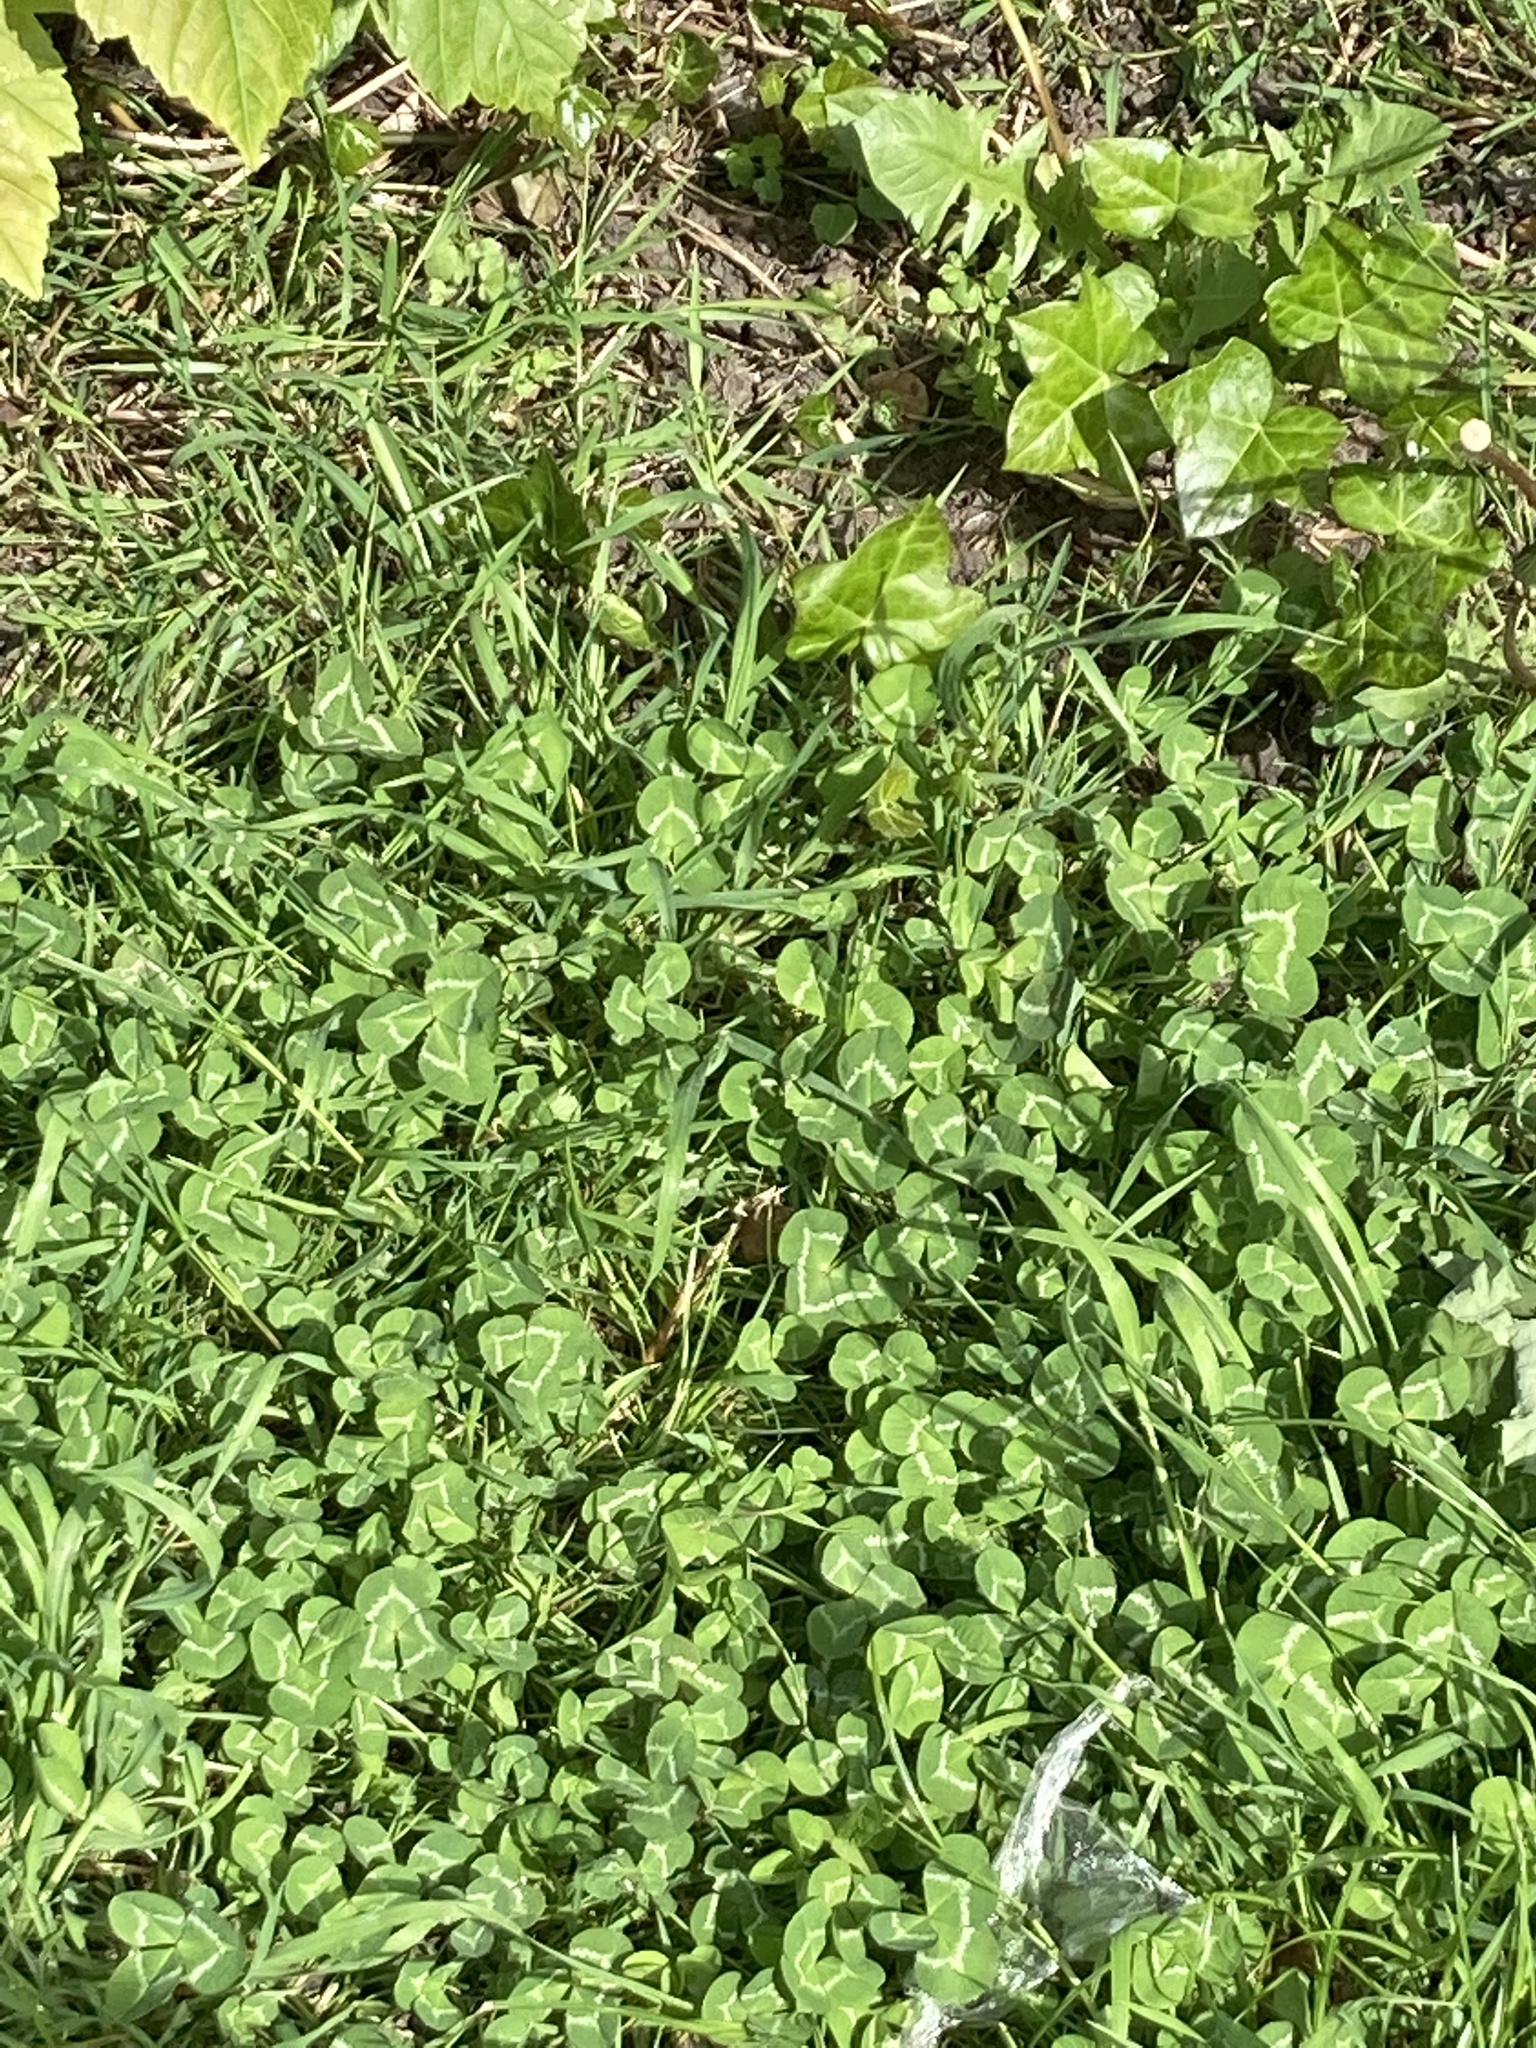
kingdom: Plantae
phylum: Tracheophyta
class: Magnoliopsida
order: Fabales
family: Fabaceae
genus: Trifolium
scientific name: Trifolium repens
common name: White clover
